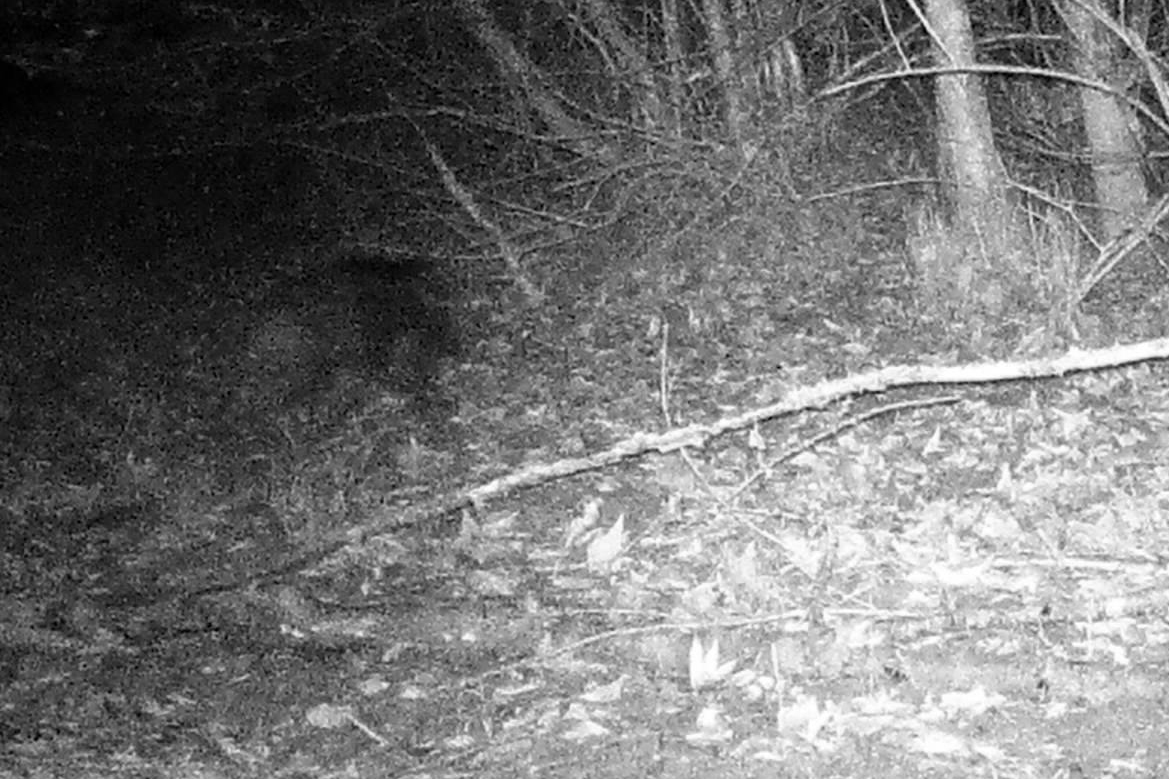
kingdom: Animalia
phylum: Chordata
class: Mammalia
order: Artiodactyla
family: Suidae
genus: Sus
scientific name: Sus scrofa
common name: Wild boar
